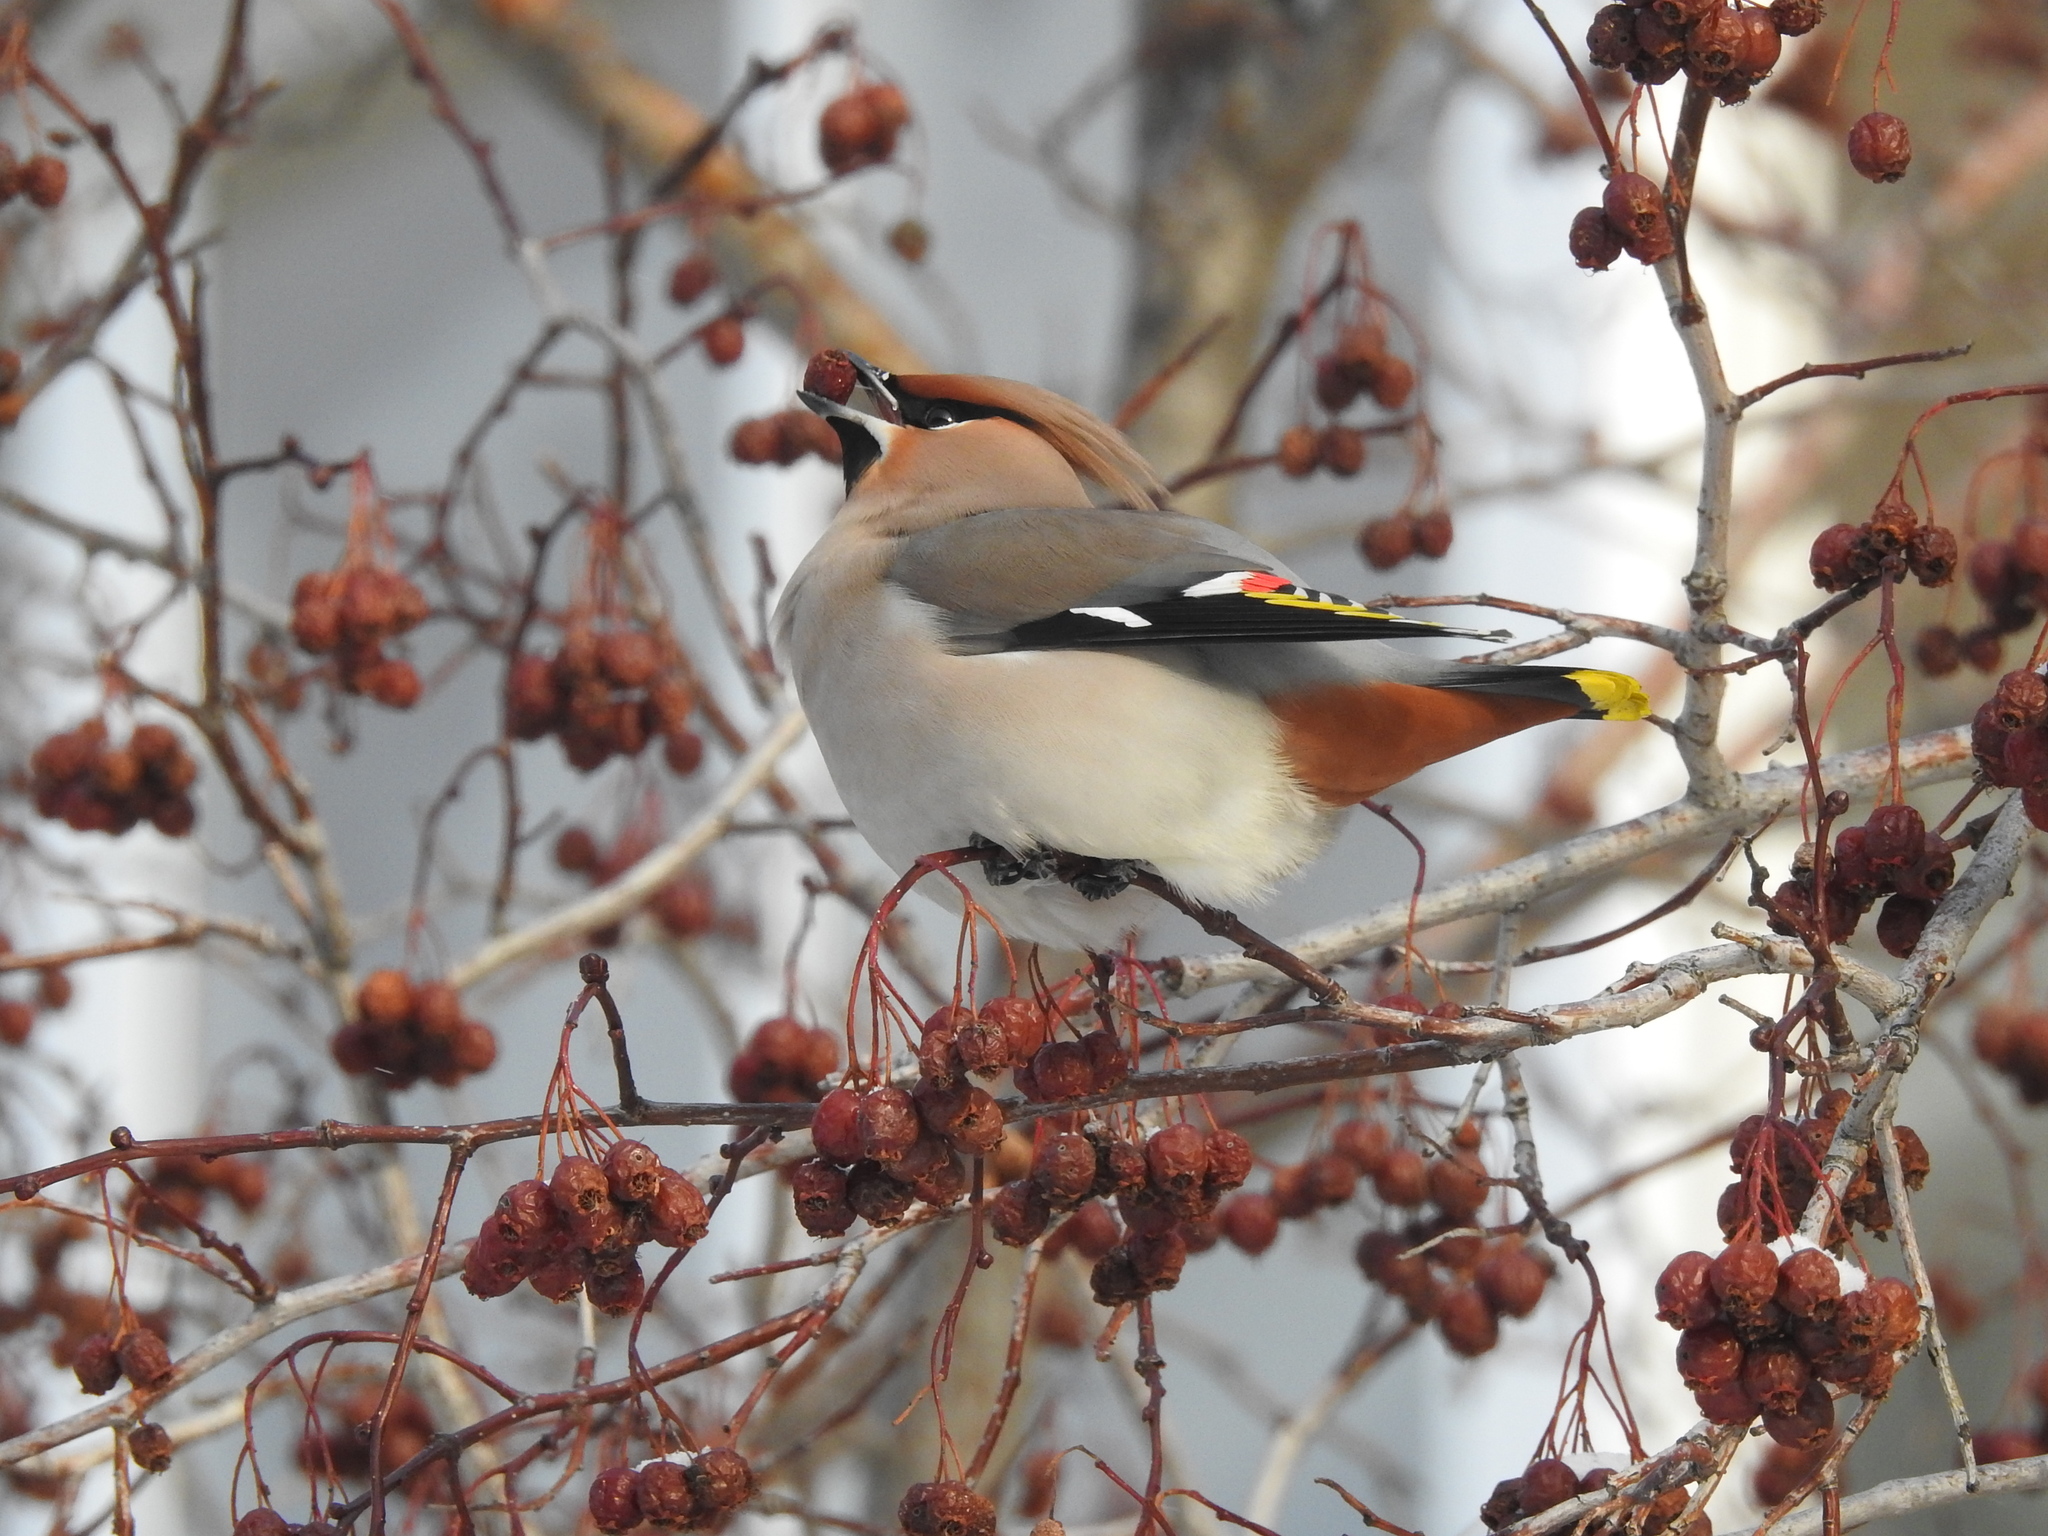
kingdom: Animalia
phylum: Chordata
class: Aves
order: Passeriformes
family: Bombycillidae
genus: Bombycilla
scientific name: Bombycilla garrulus
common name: Bohemian waxwing
